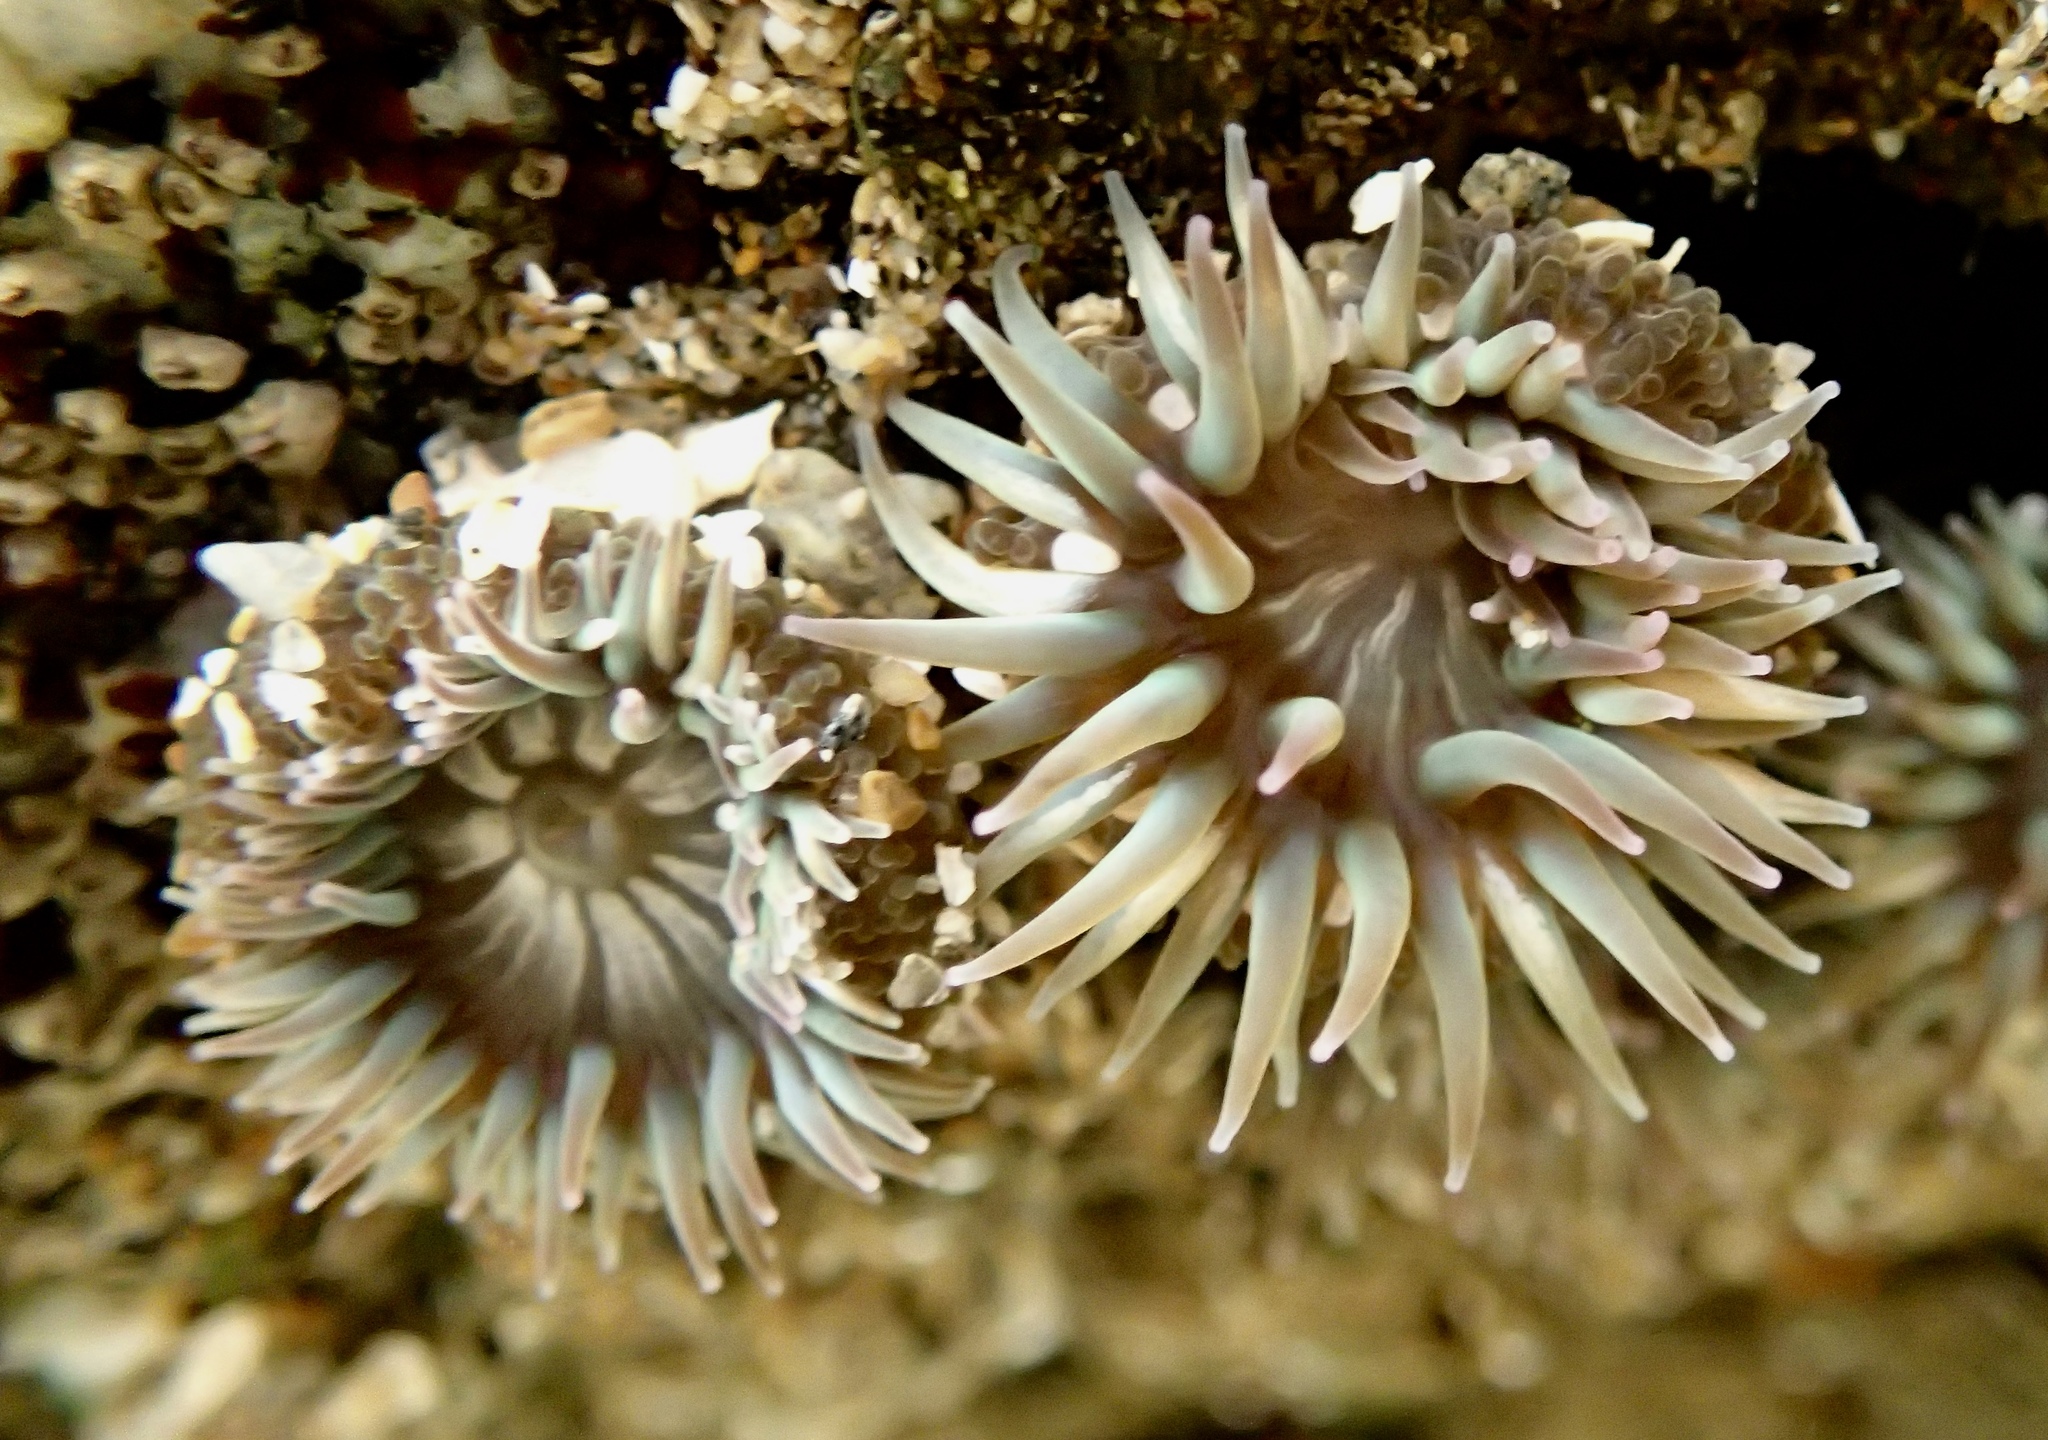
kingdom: Animalia
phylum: Cnidaria
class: Anthozoa
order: Actiniaria
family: Actiniidae
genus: Anthopleura
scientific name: Anthopleura elegantissima
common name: Clonal anemone
